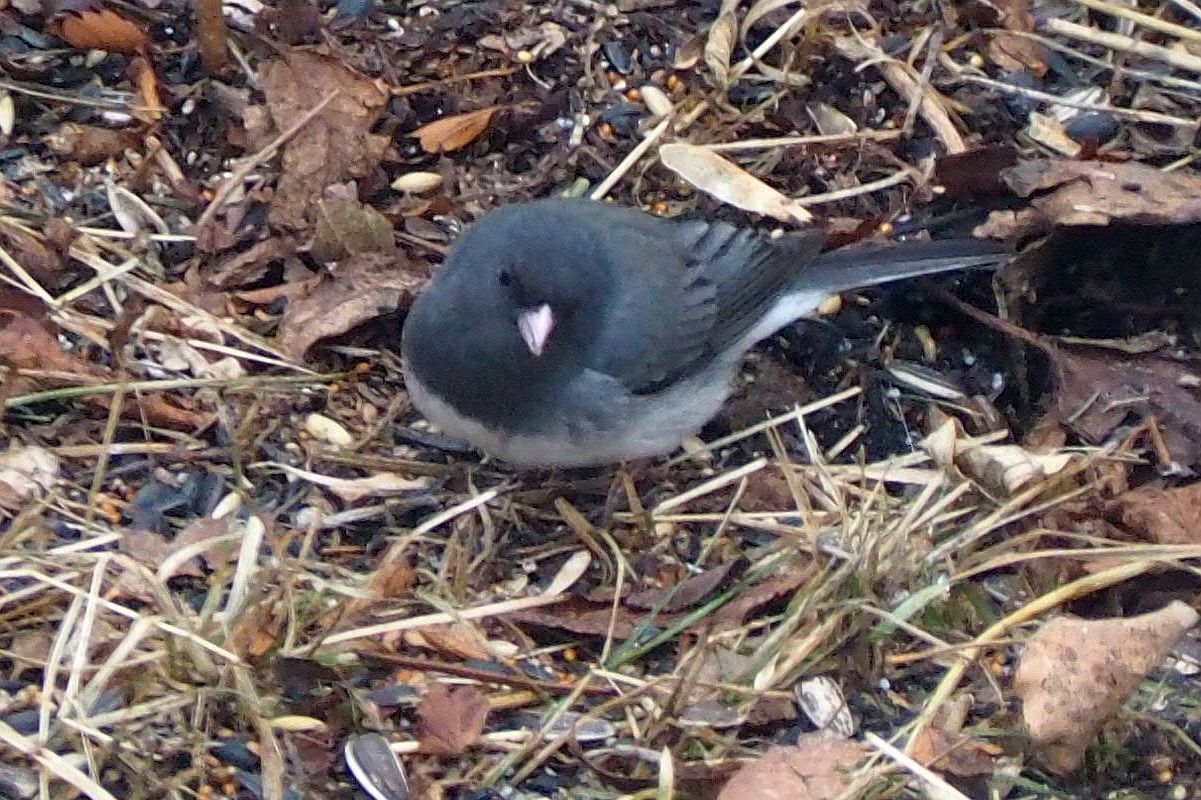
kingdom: Animalia
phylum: Chordata
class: Aves
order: Passeriformes
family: Passerellidae
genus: Junco
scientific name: Junco hyemalis
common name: Dark-eyed junco
